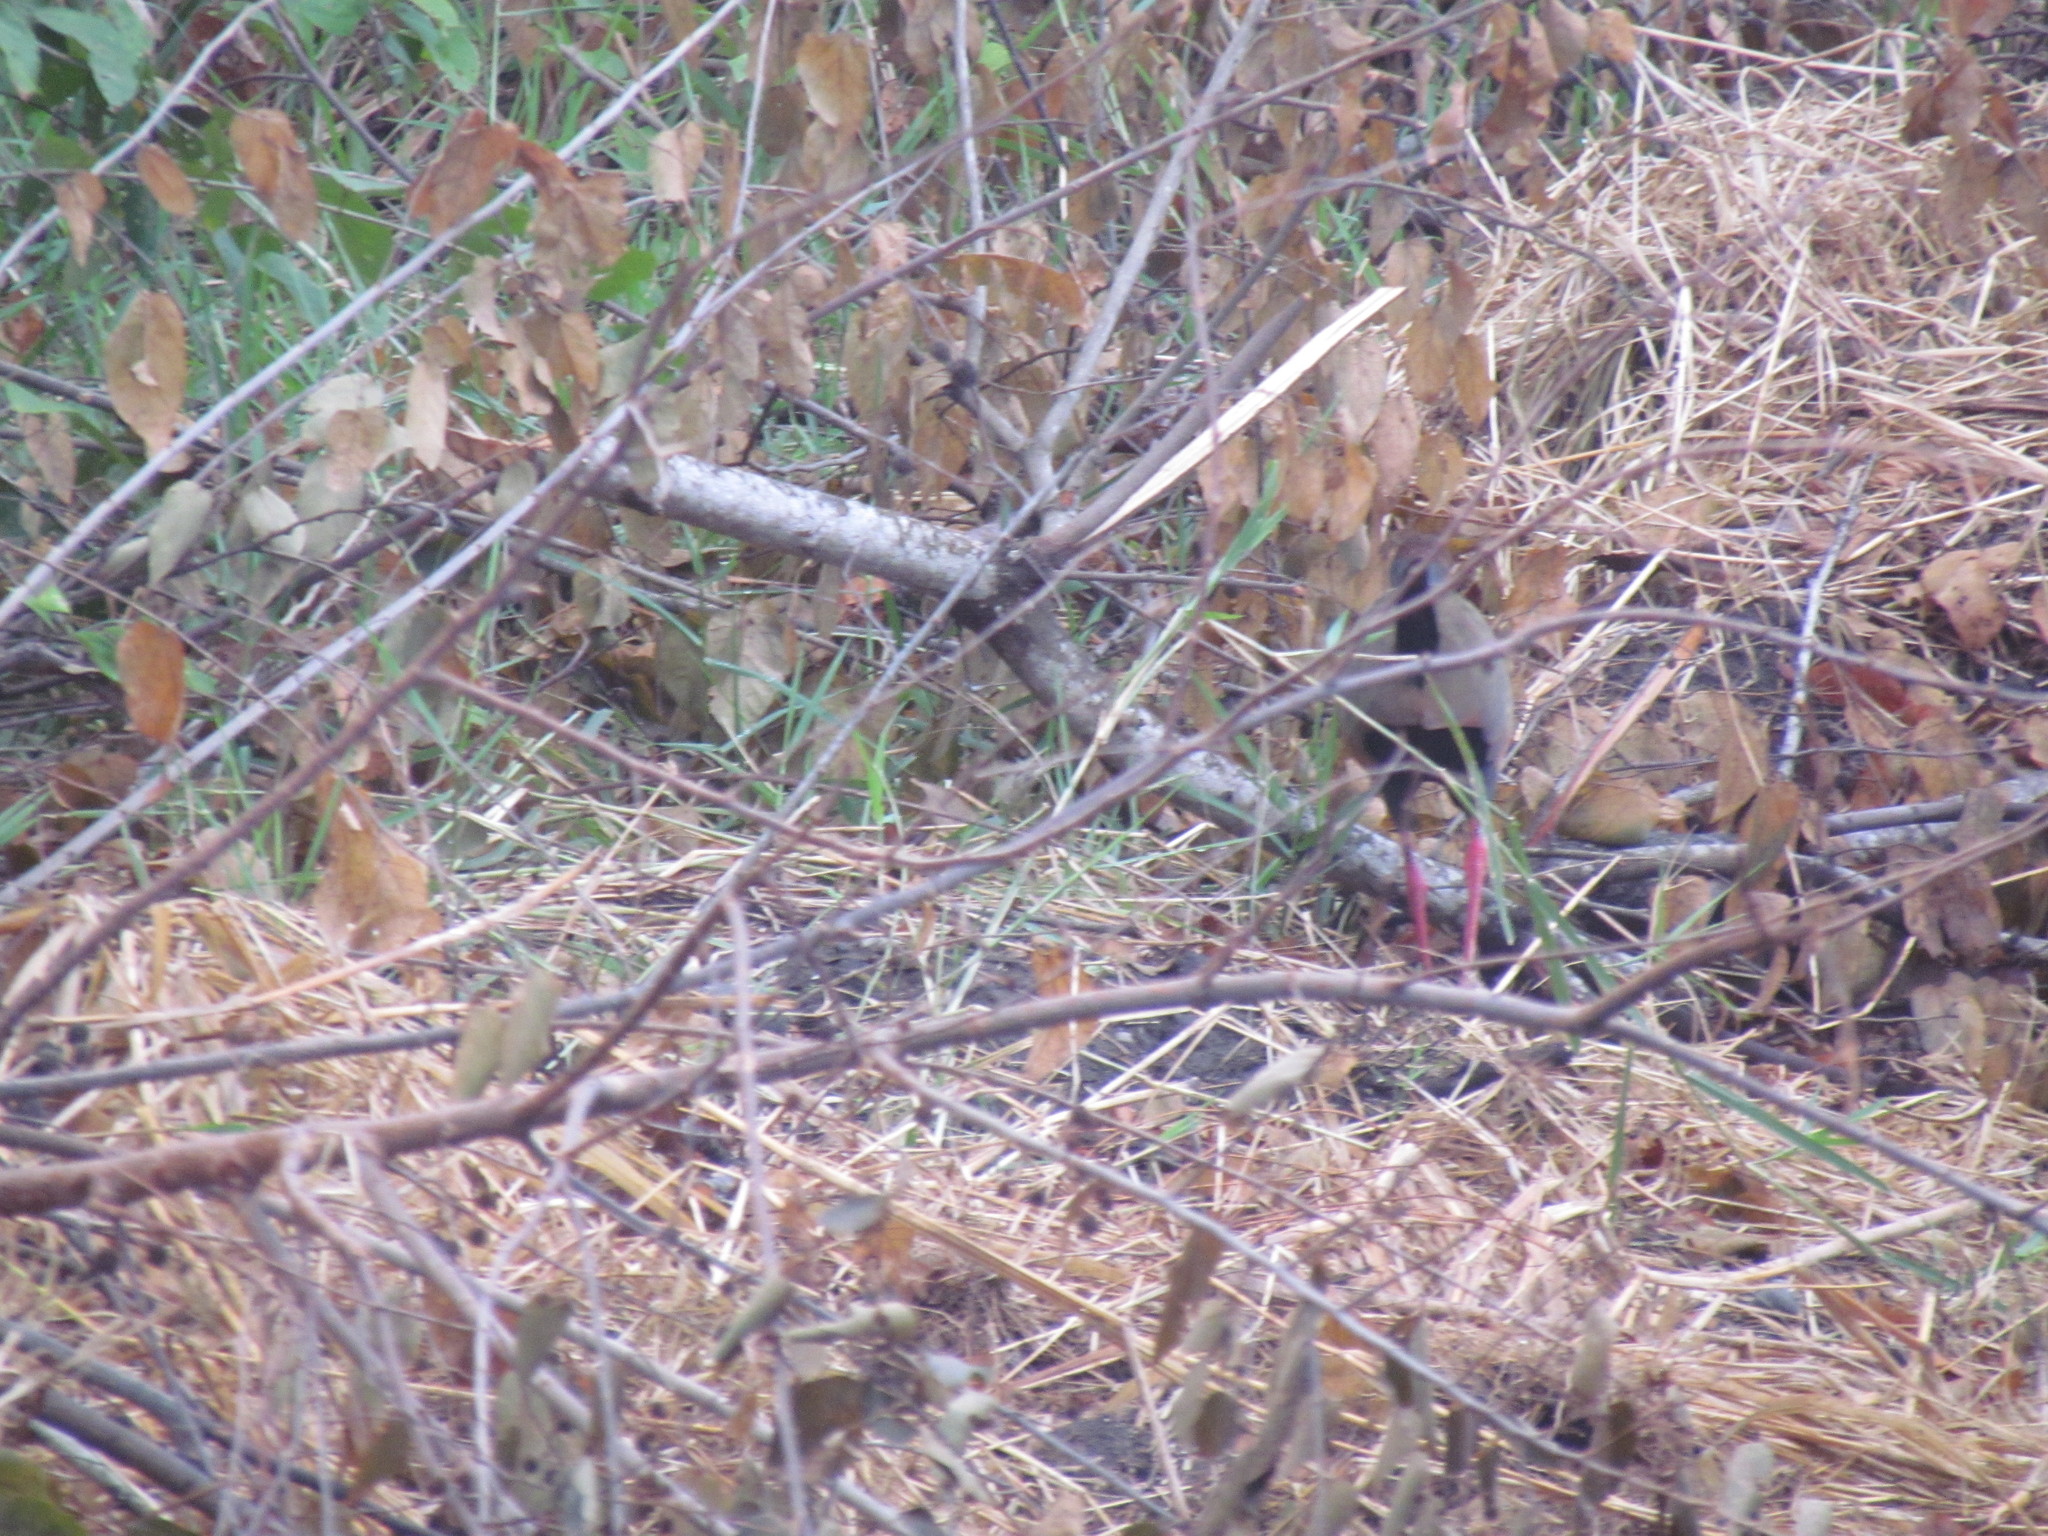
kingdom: Animalia
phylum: Chordata
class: Aves
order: Gruiformes
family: Rallidae
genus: Aramides
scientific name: Aramides albiventris
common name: Russet-naped wood-rail
